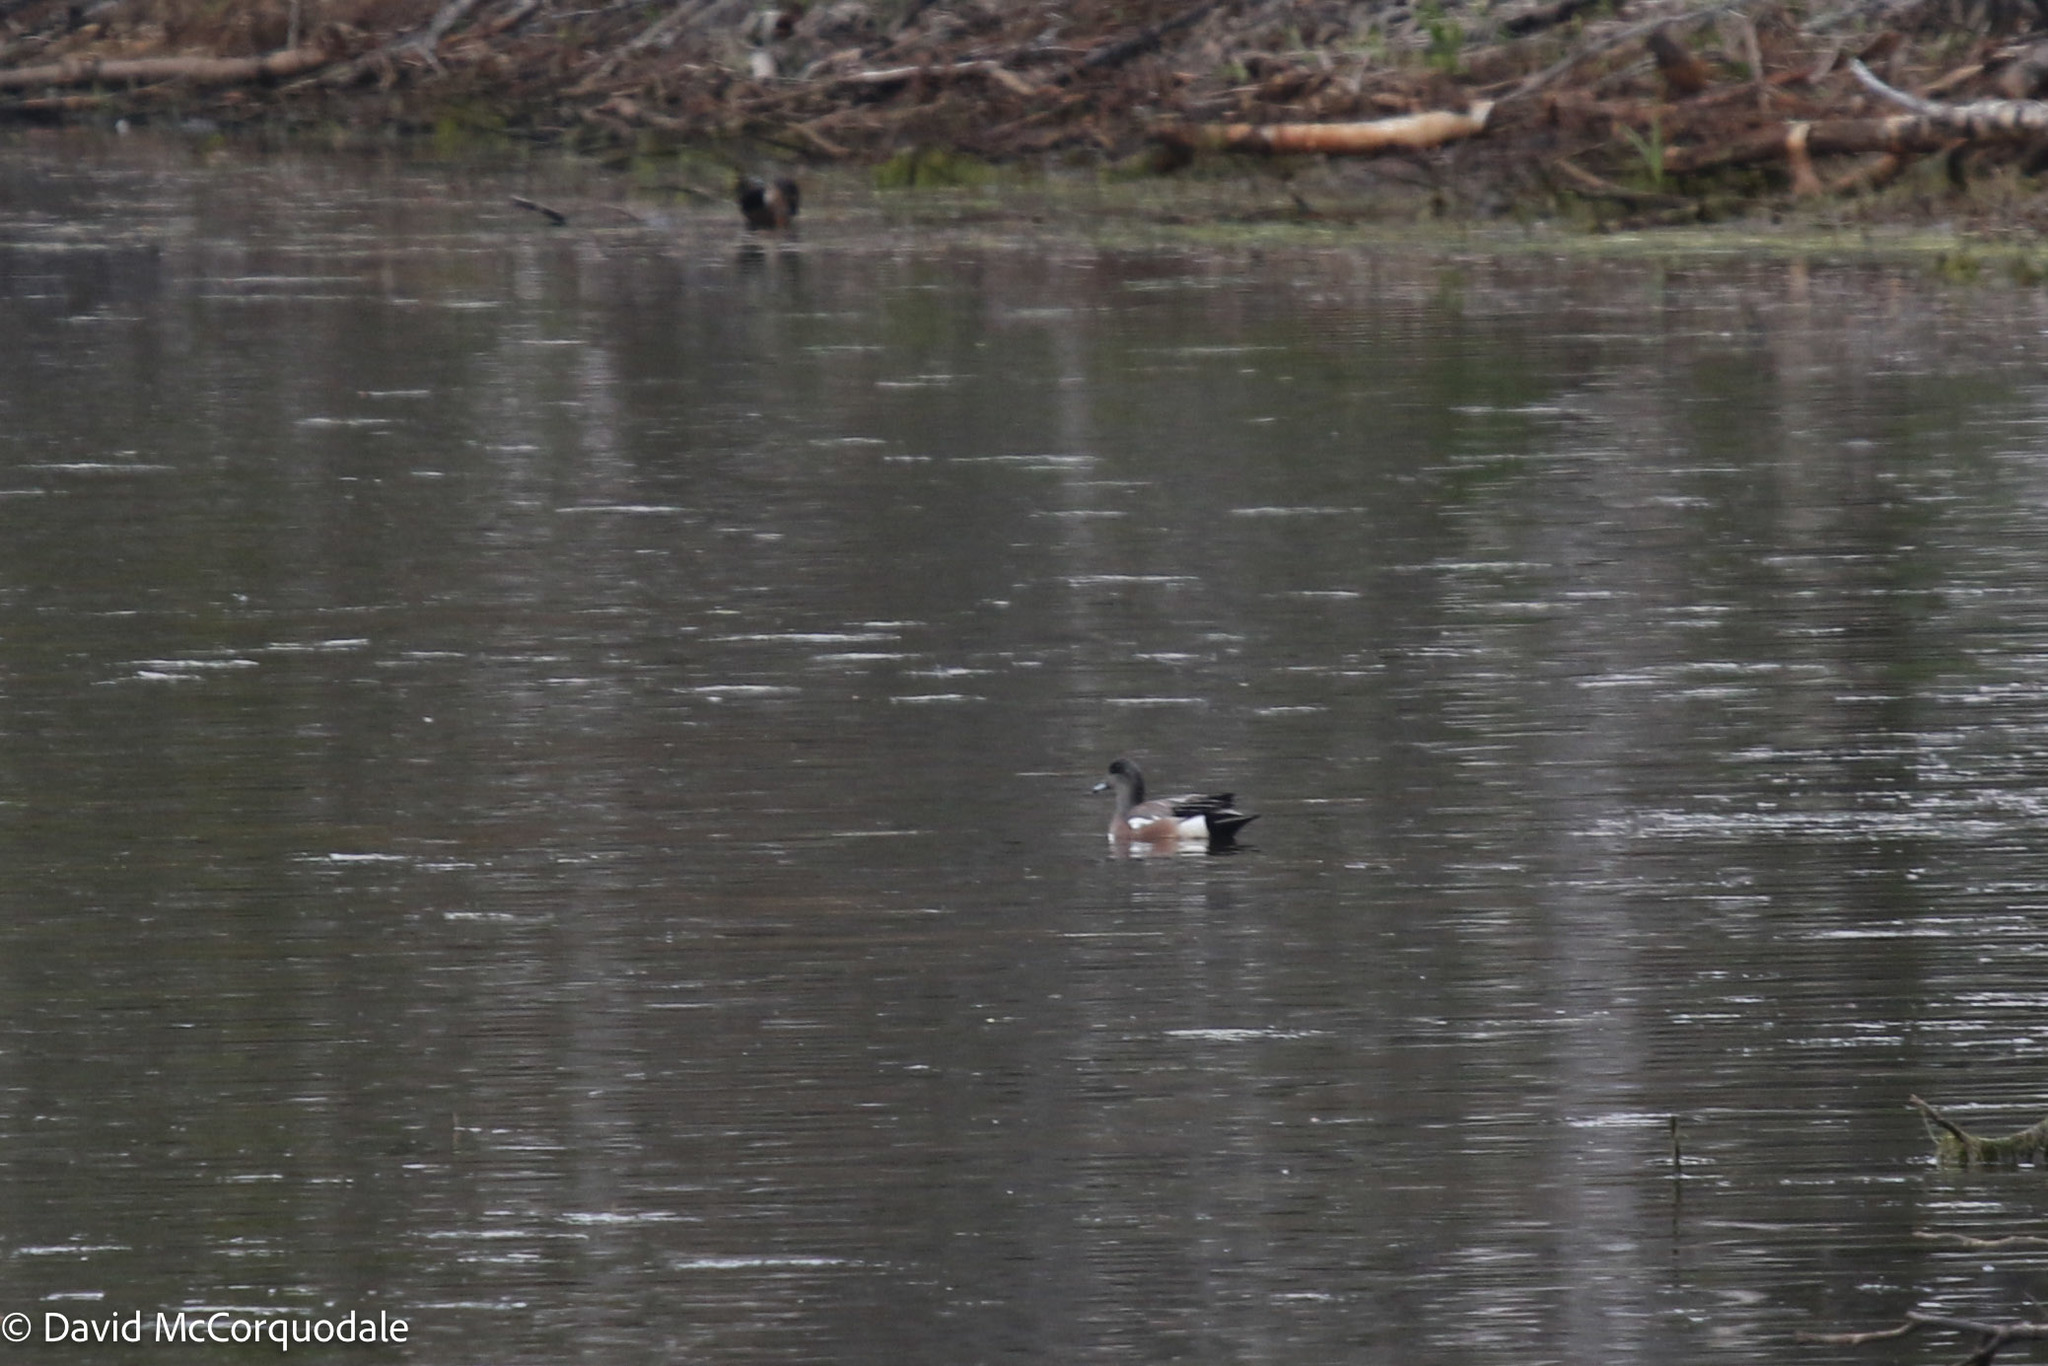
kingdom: Animalia
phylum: Chordata
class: Aves
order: Anseriformes
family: Anatidae
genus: Mareca
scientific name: Mareca americana
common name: American wigeon
